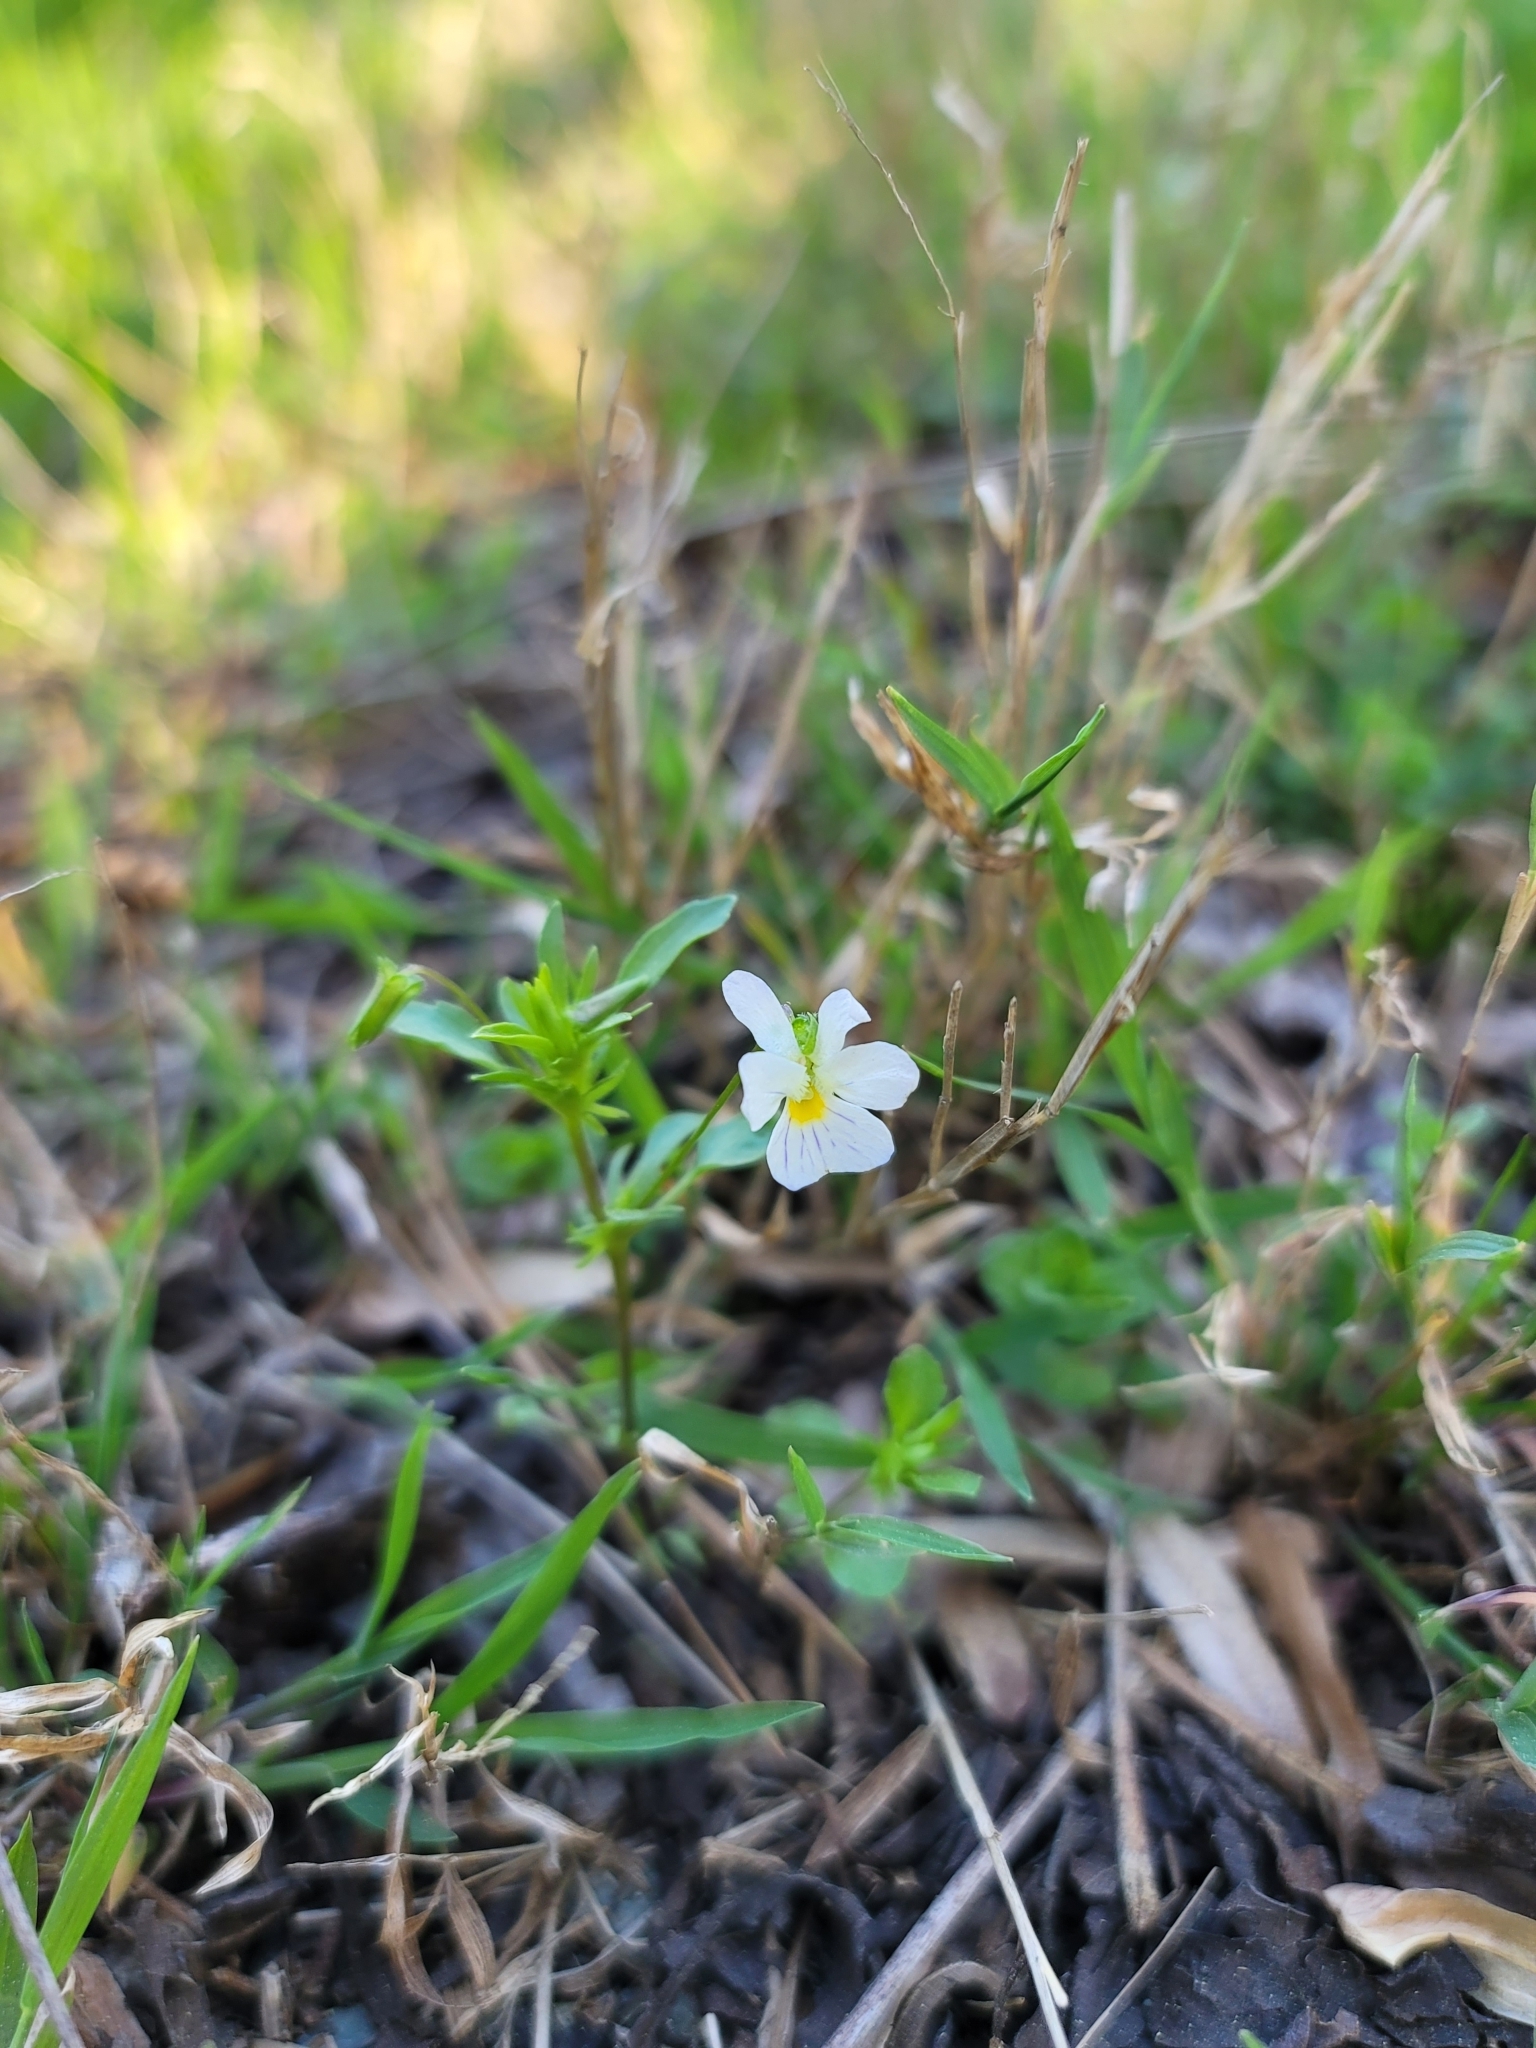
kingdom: Plantae
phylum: Tracheophyta
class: Magnoliopsida
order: Malpighiales
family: Violaceae
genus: Viola
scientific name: Viola rafinesquei
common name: American field pansy
